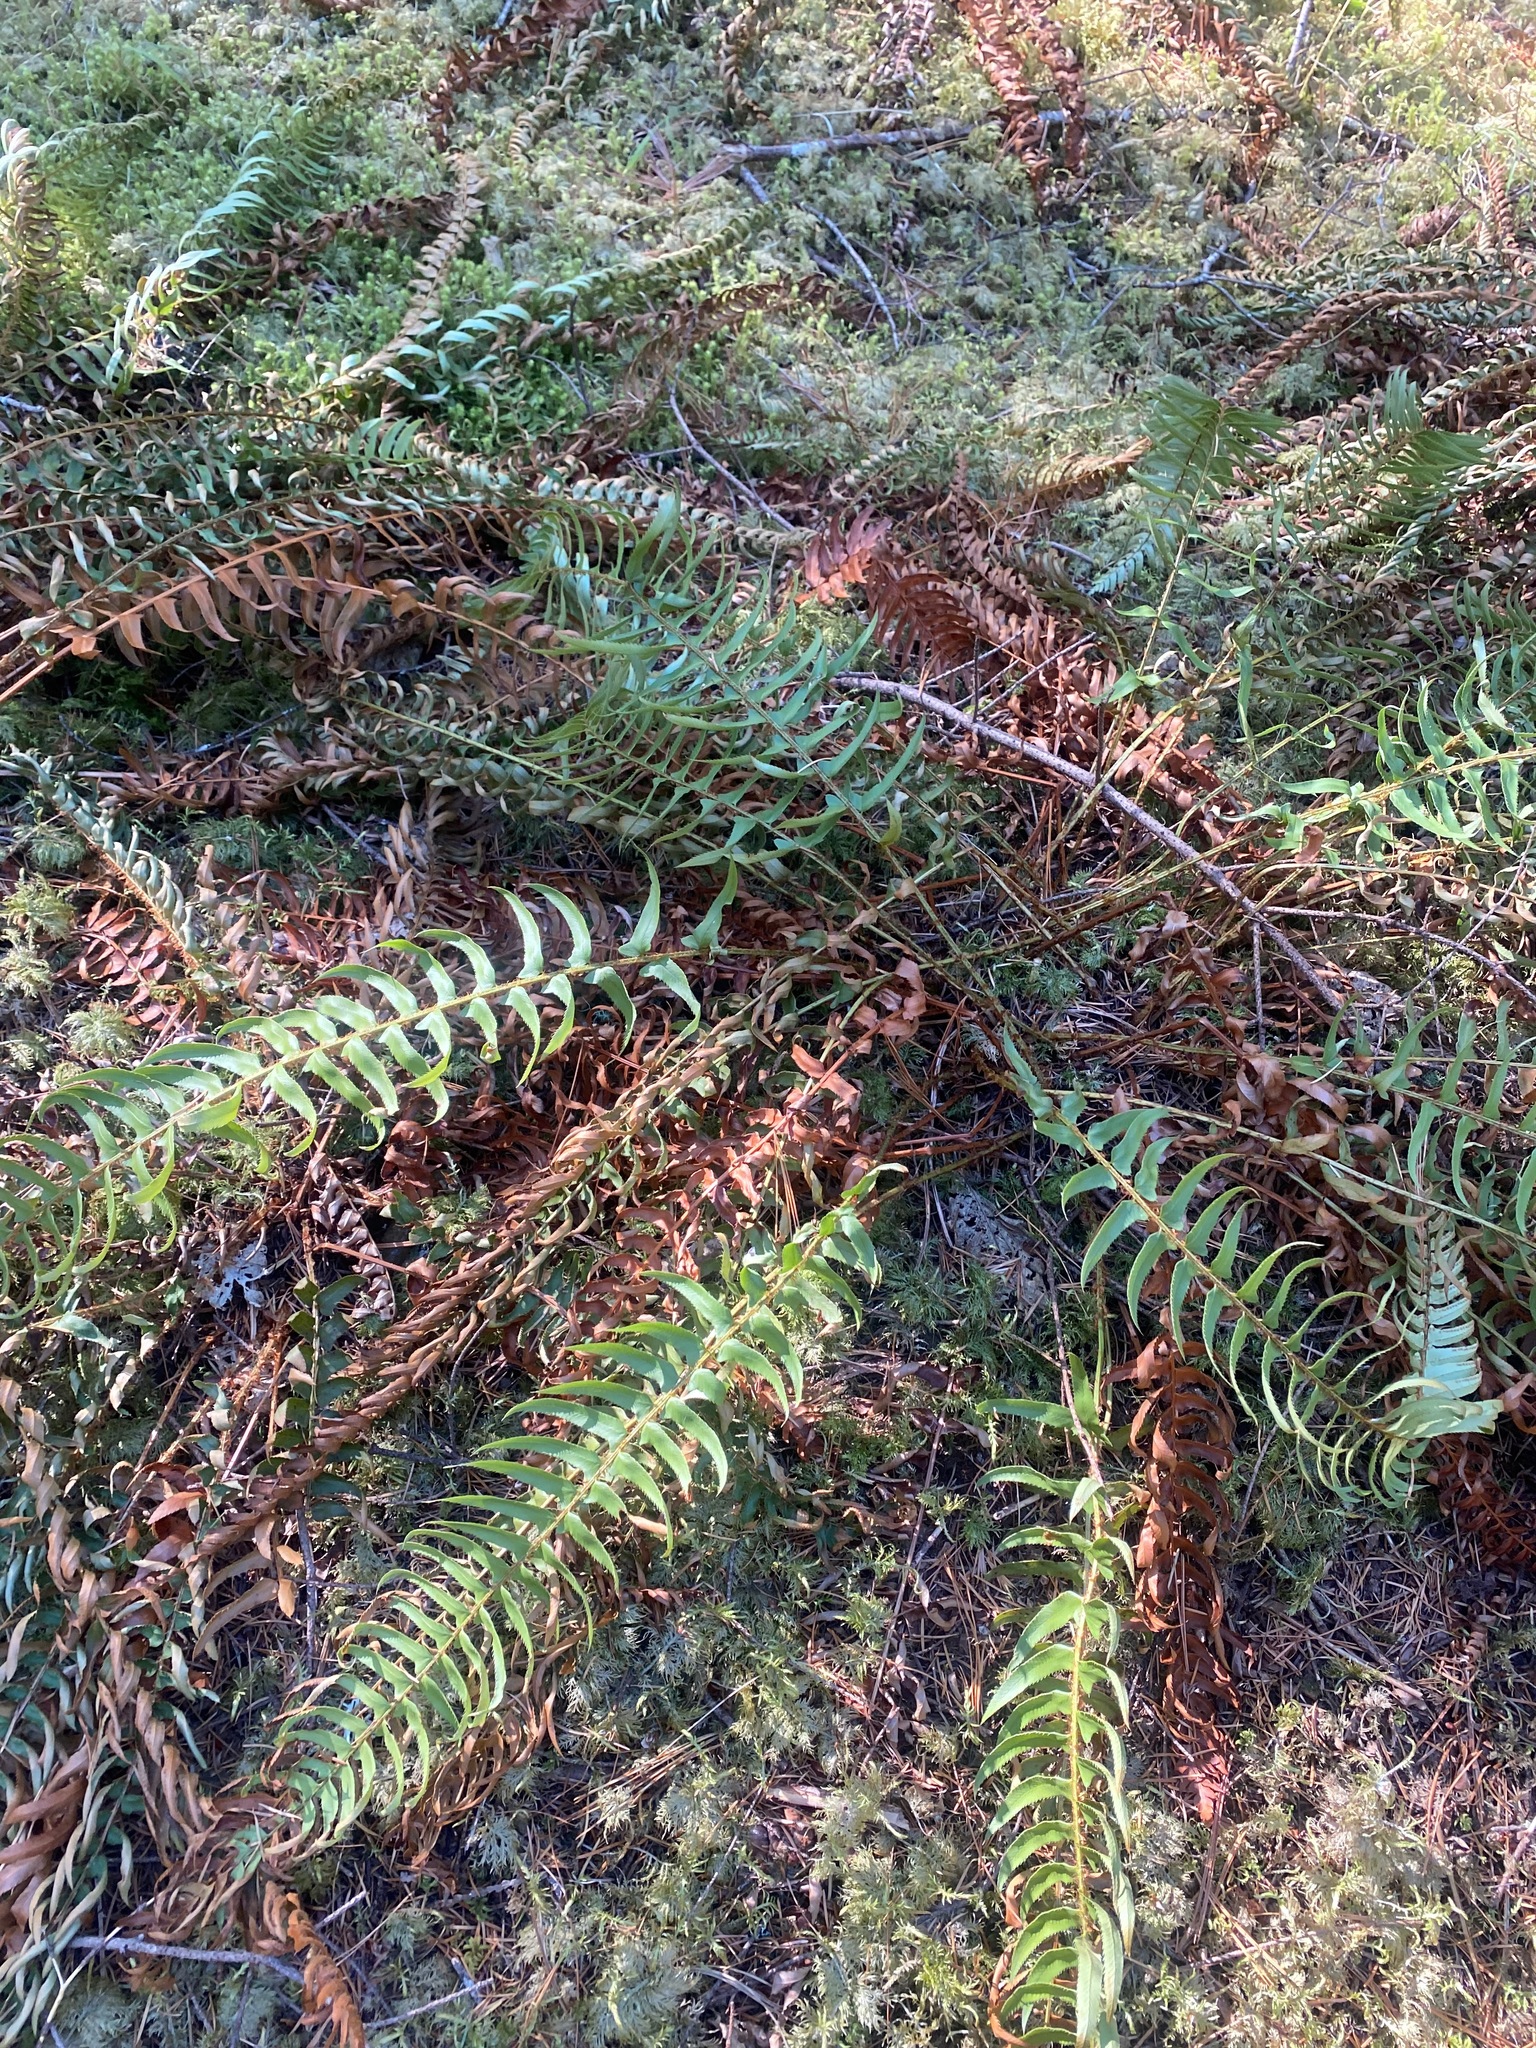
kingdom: Plantae
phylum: Tracheophyta
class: Polypodiopsida
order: Polypodiales
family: Dryopteridaceae
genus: Polystichum
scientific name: Polystichum munitum
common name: Western sword-fern
